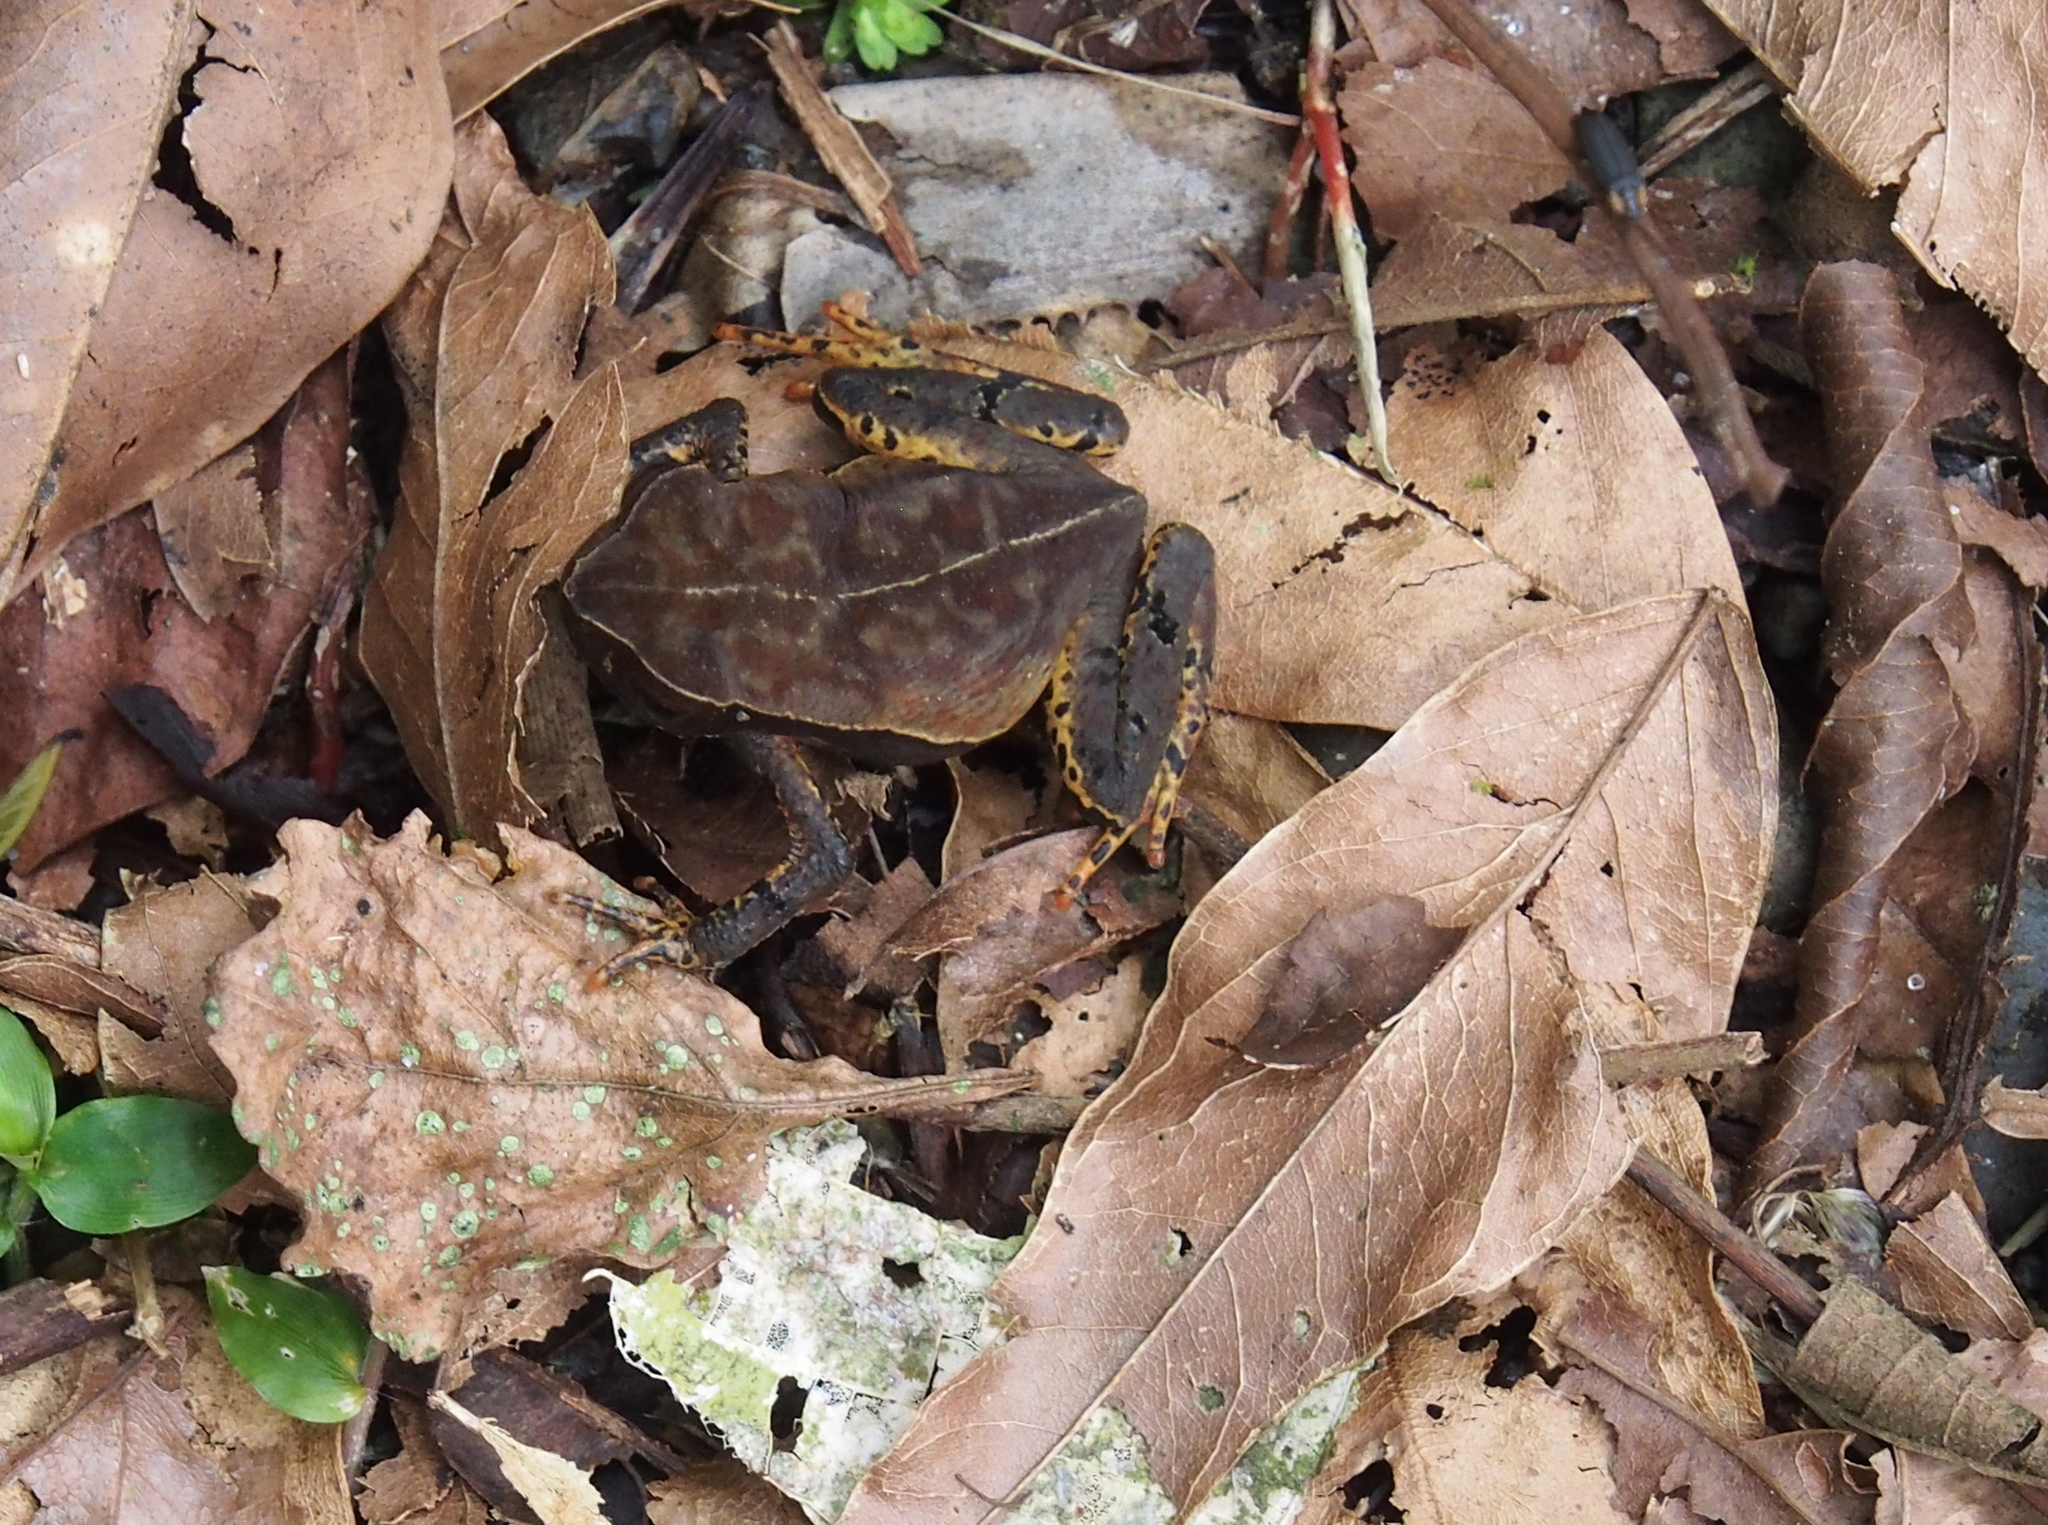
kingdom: Animalia
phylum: Chordata
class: Amphibia
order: Anura
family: Bufonidae
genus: Rhaebo
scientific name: Rhaebo haematiticus
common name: Truando toad
